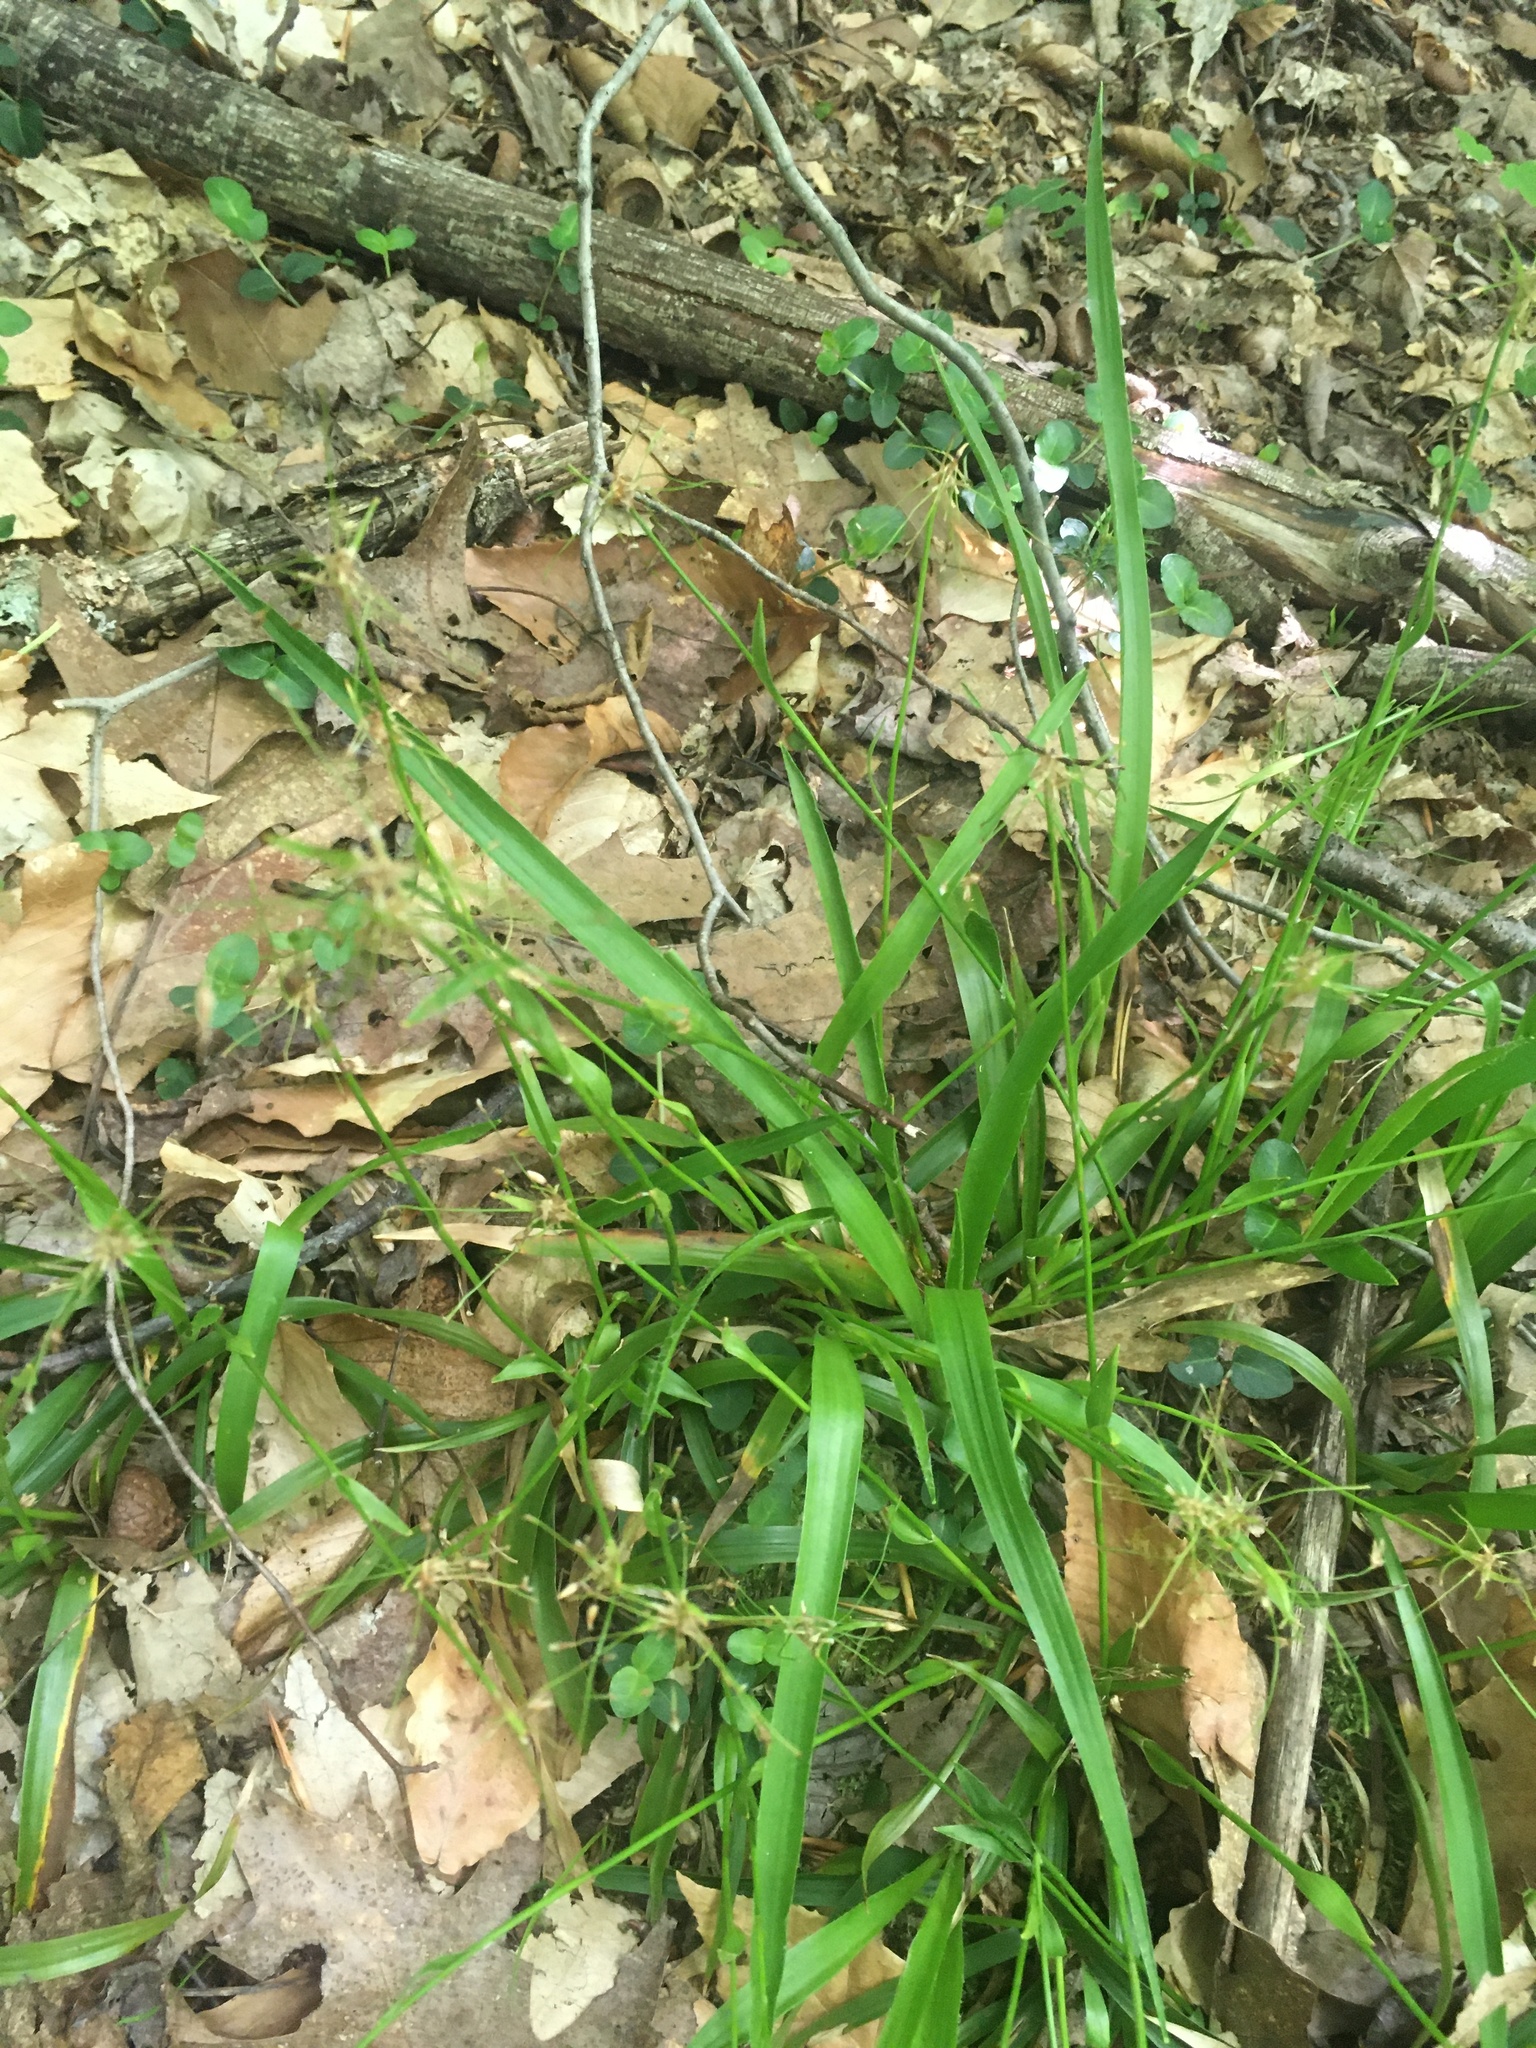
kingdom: Plantae
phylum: Tracheophyta
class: Liliopsida
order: Poales
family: Juncaceae
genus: Luzula
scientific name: Luzula acuminata
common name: Hairy woodrush
